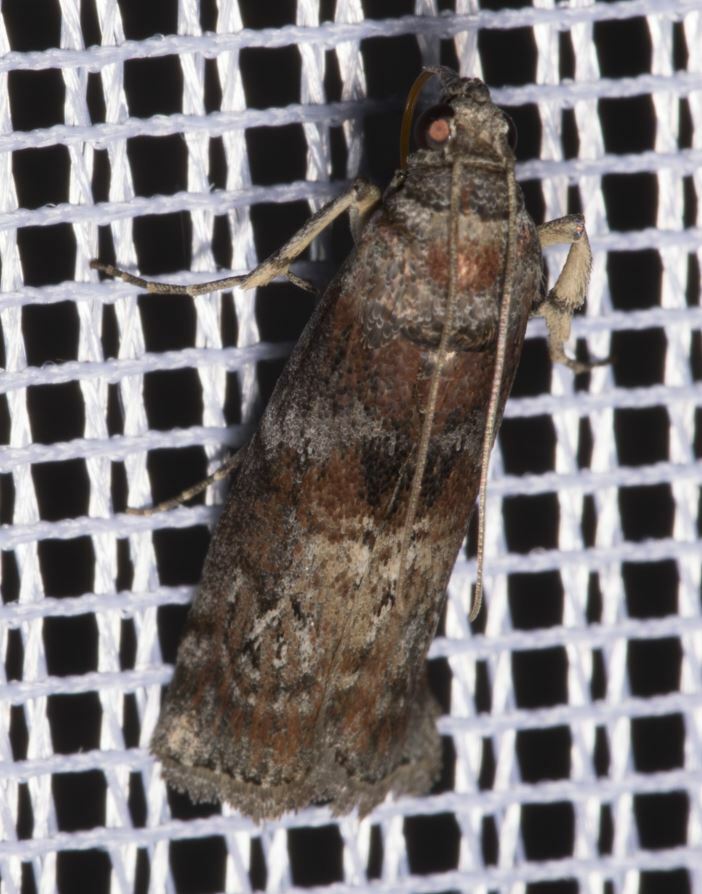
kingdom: Animalia
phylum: Arthropoda
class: Insecta
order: Lepidoptera
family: Pyralidae
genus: Phycita
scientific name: Phycita roborella
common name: Dotted oak knot-horn
